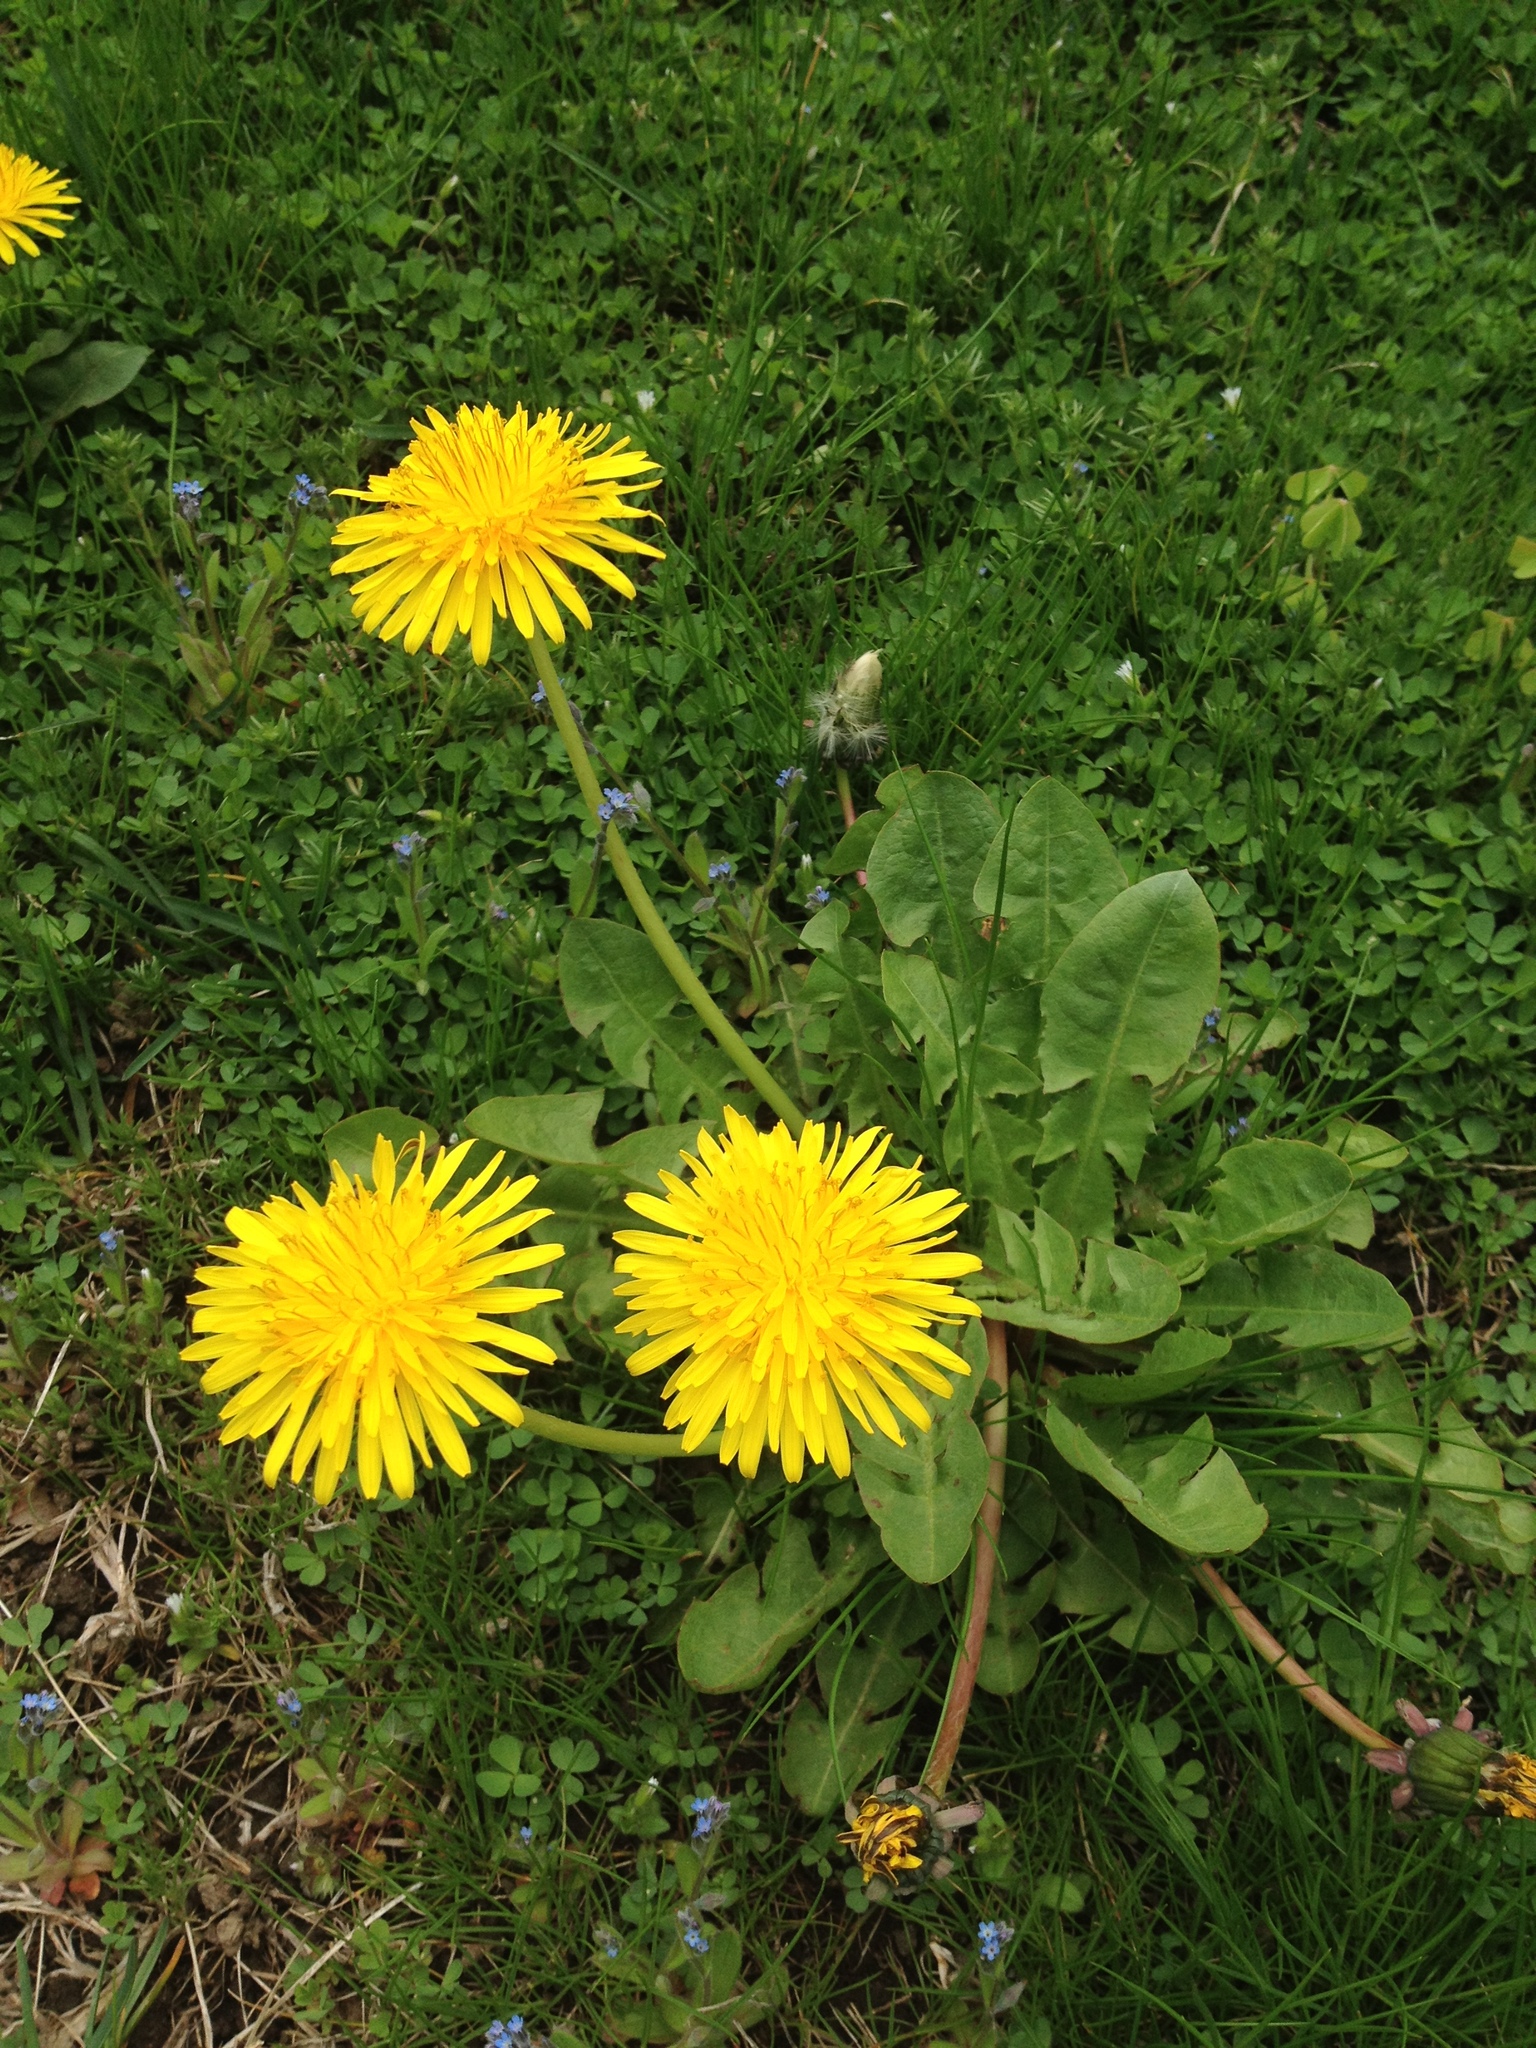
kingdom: Plantae
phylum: Tracheophyta
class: Magnoliopsida
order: Asterales
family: Asteraceae
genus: Taraxacum
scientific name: Taraxacum officinale
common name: Common dandelion
